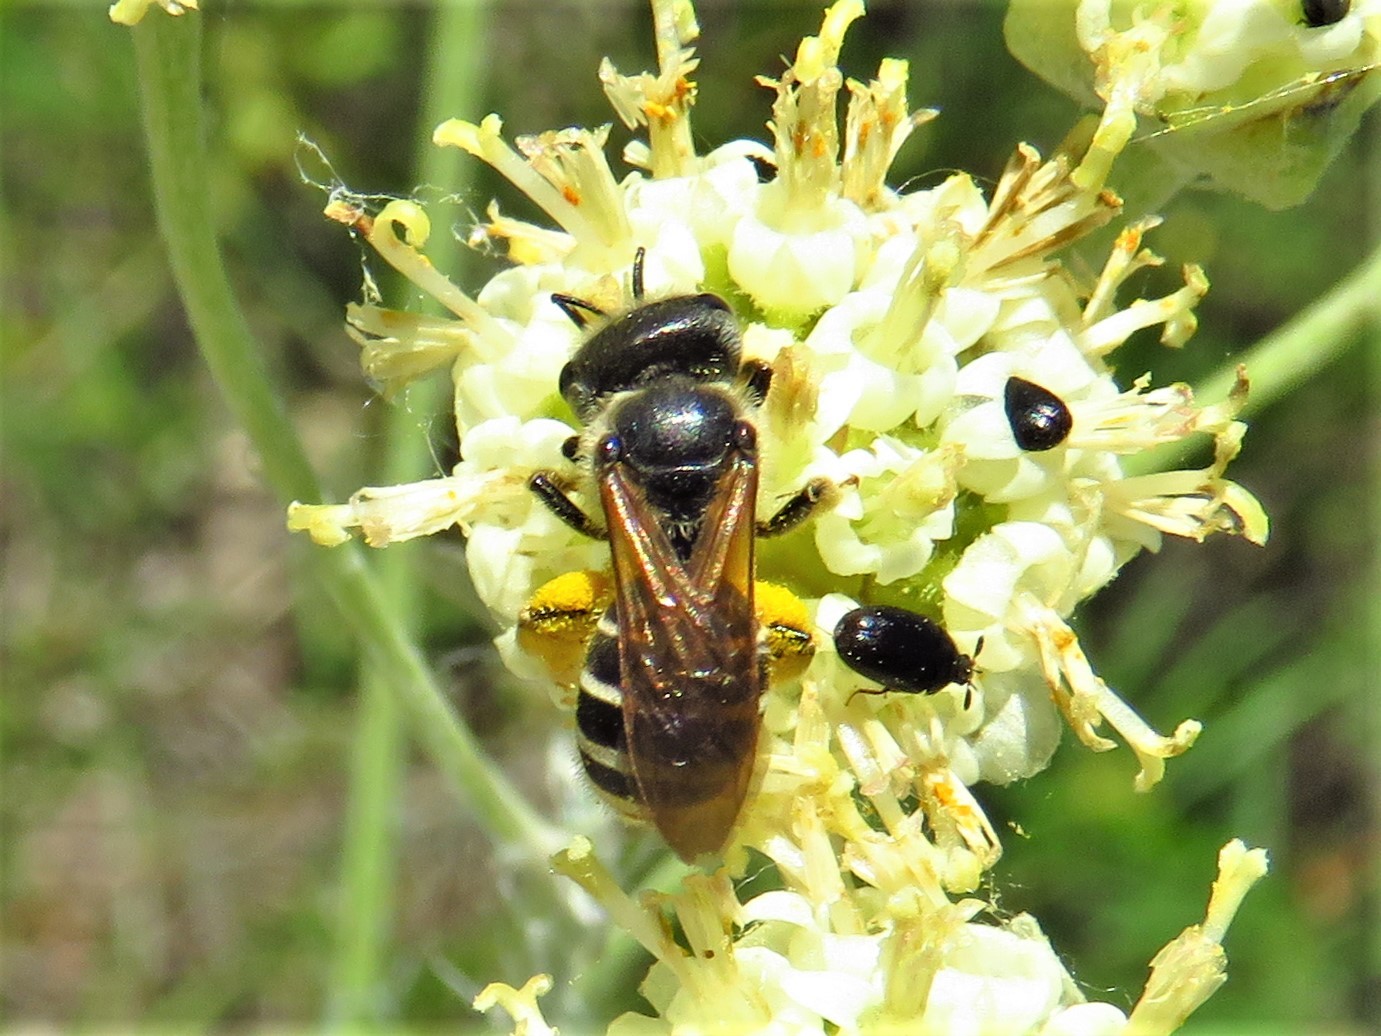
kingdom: Animalia
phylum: Arthropoda
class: Insecta
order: Hymenoptera
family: Halictidae
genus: Halictus
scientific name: Halictus ligatus
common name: Ligated furrow bee
